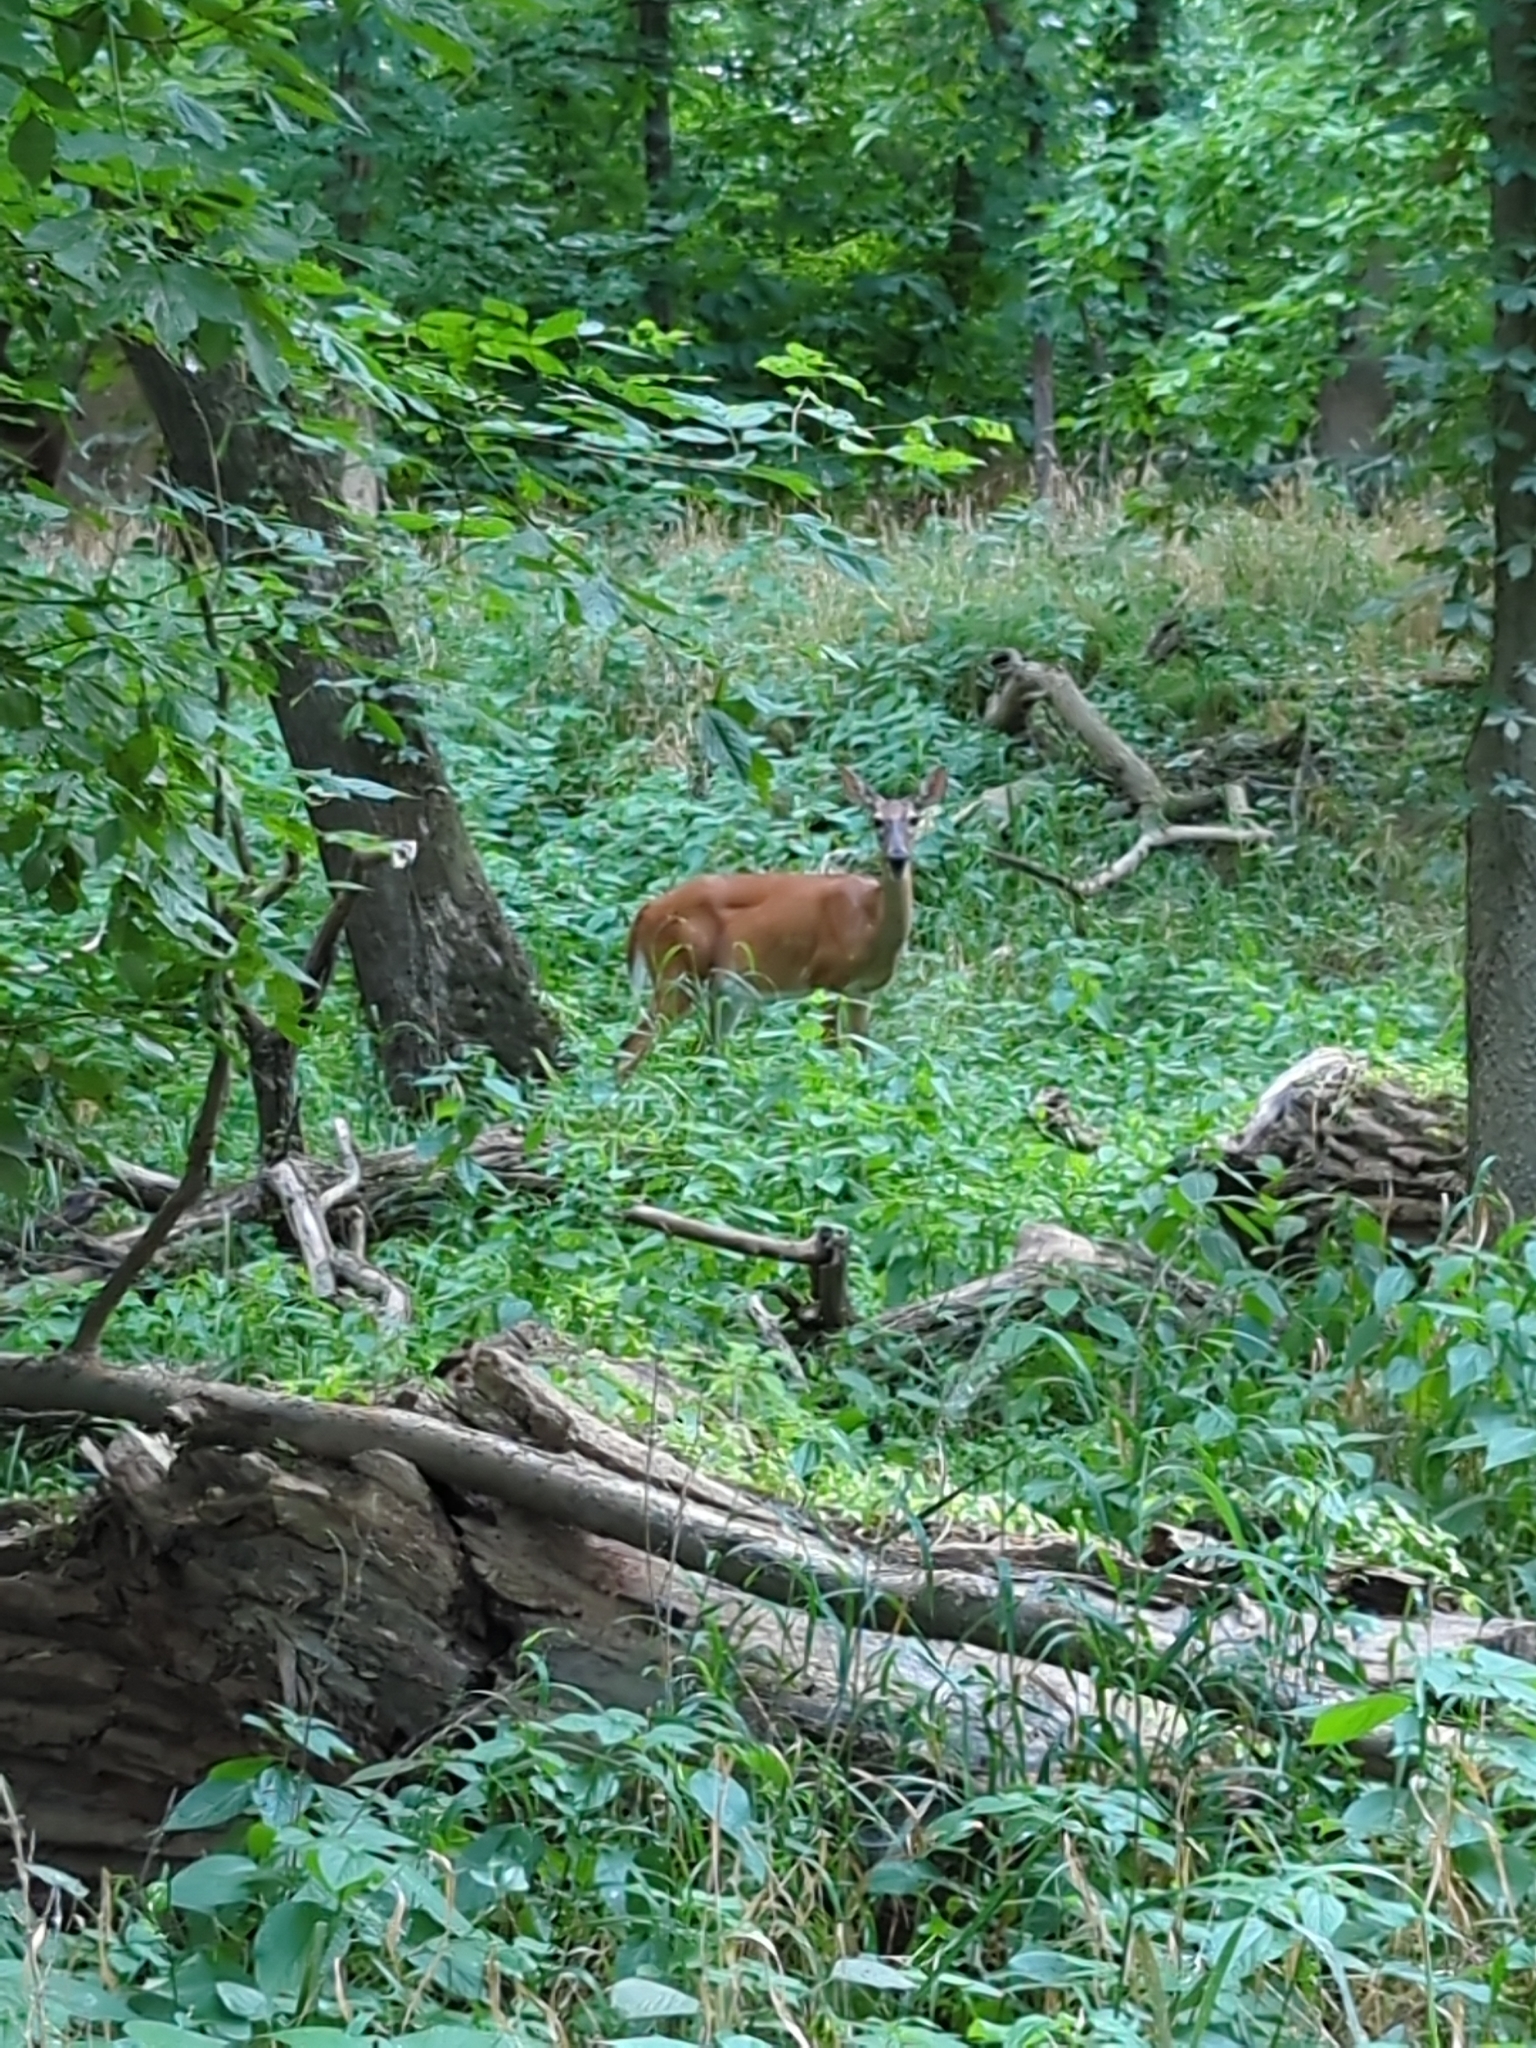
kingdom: Animalia
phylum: Chordata
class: Mammalia
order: Artiodactyla
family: Cervidae
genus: Odocoileus
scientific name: Odocoileus virginianus
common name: White-tailed deer
